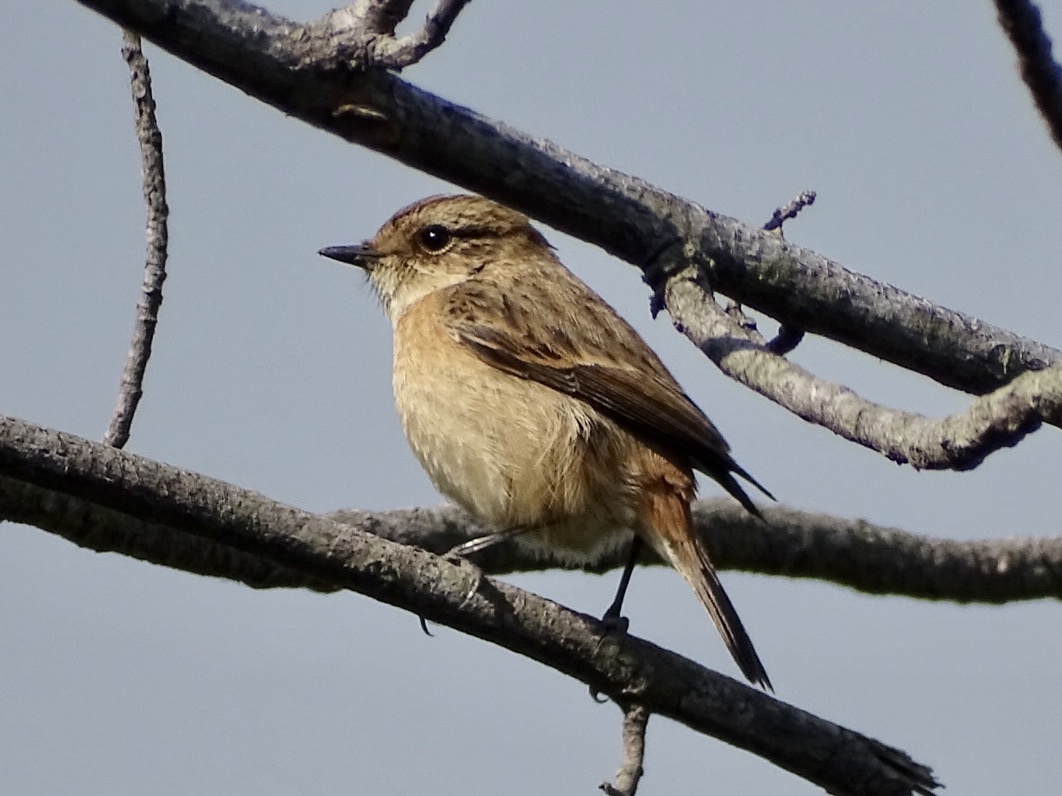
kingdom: Animalia
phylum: Chordata
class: Aves
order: Passeriformes
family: Muscicapidae
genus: Saxicola
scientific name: Saxicola stejnegeri
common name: Stejneger's stonechat
